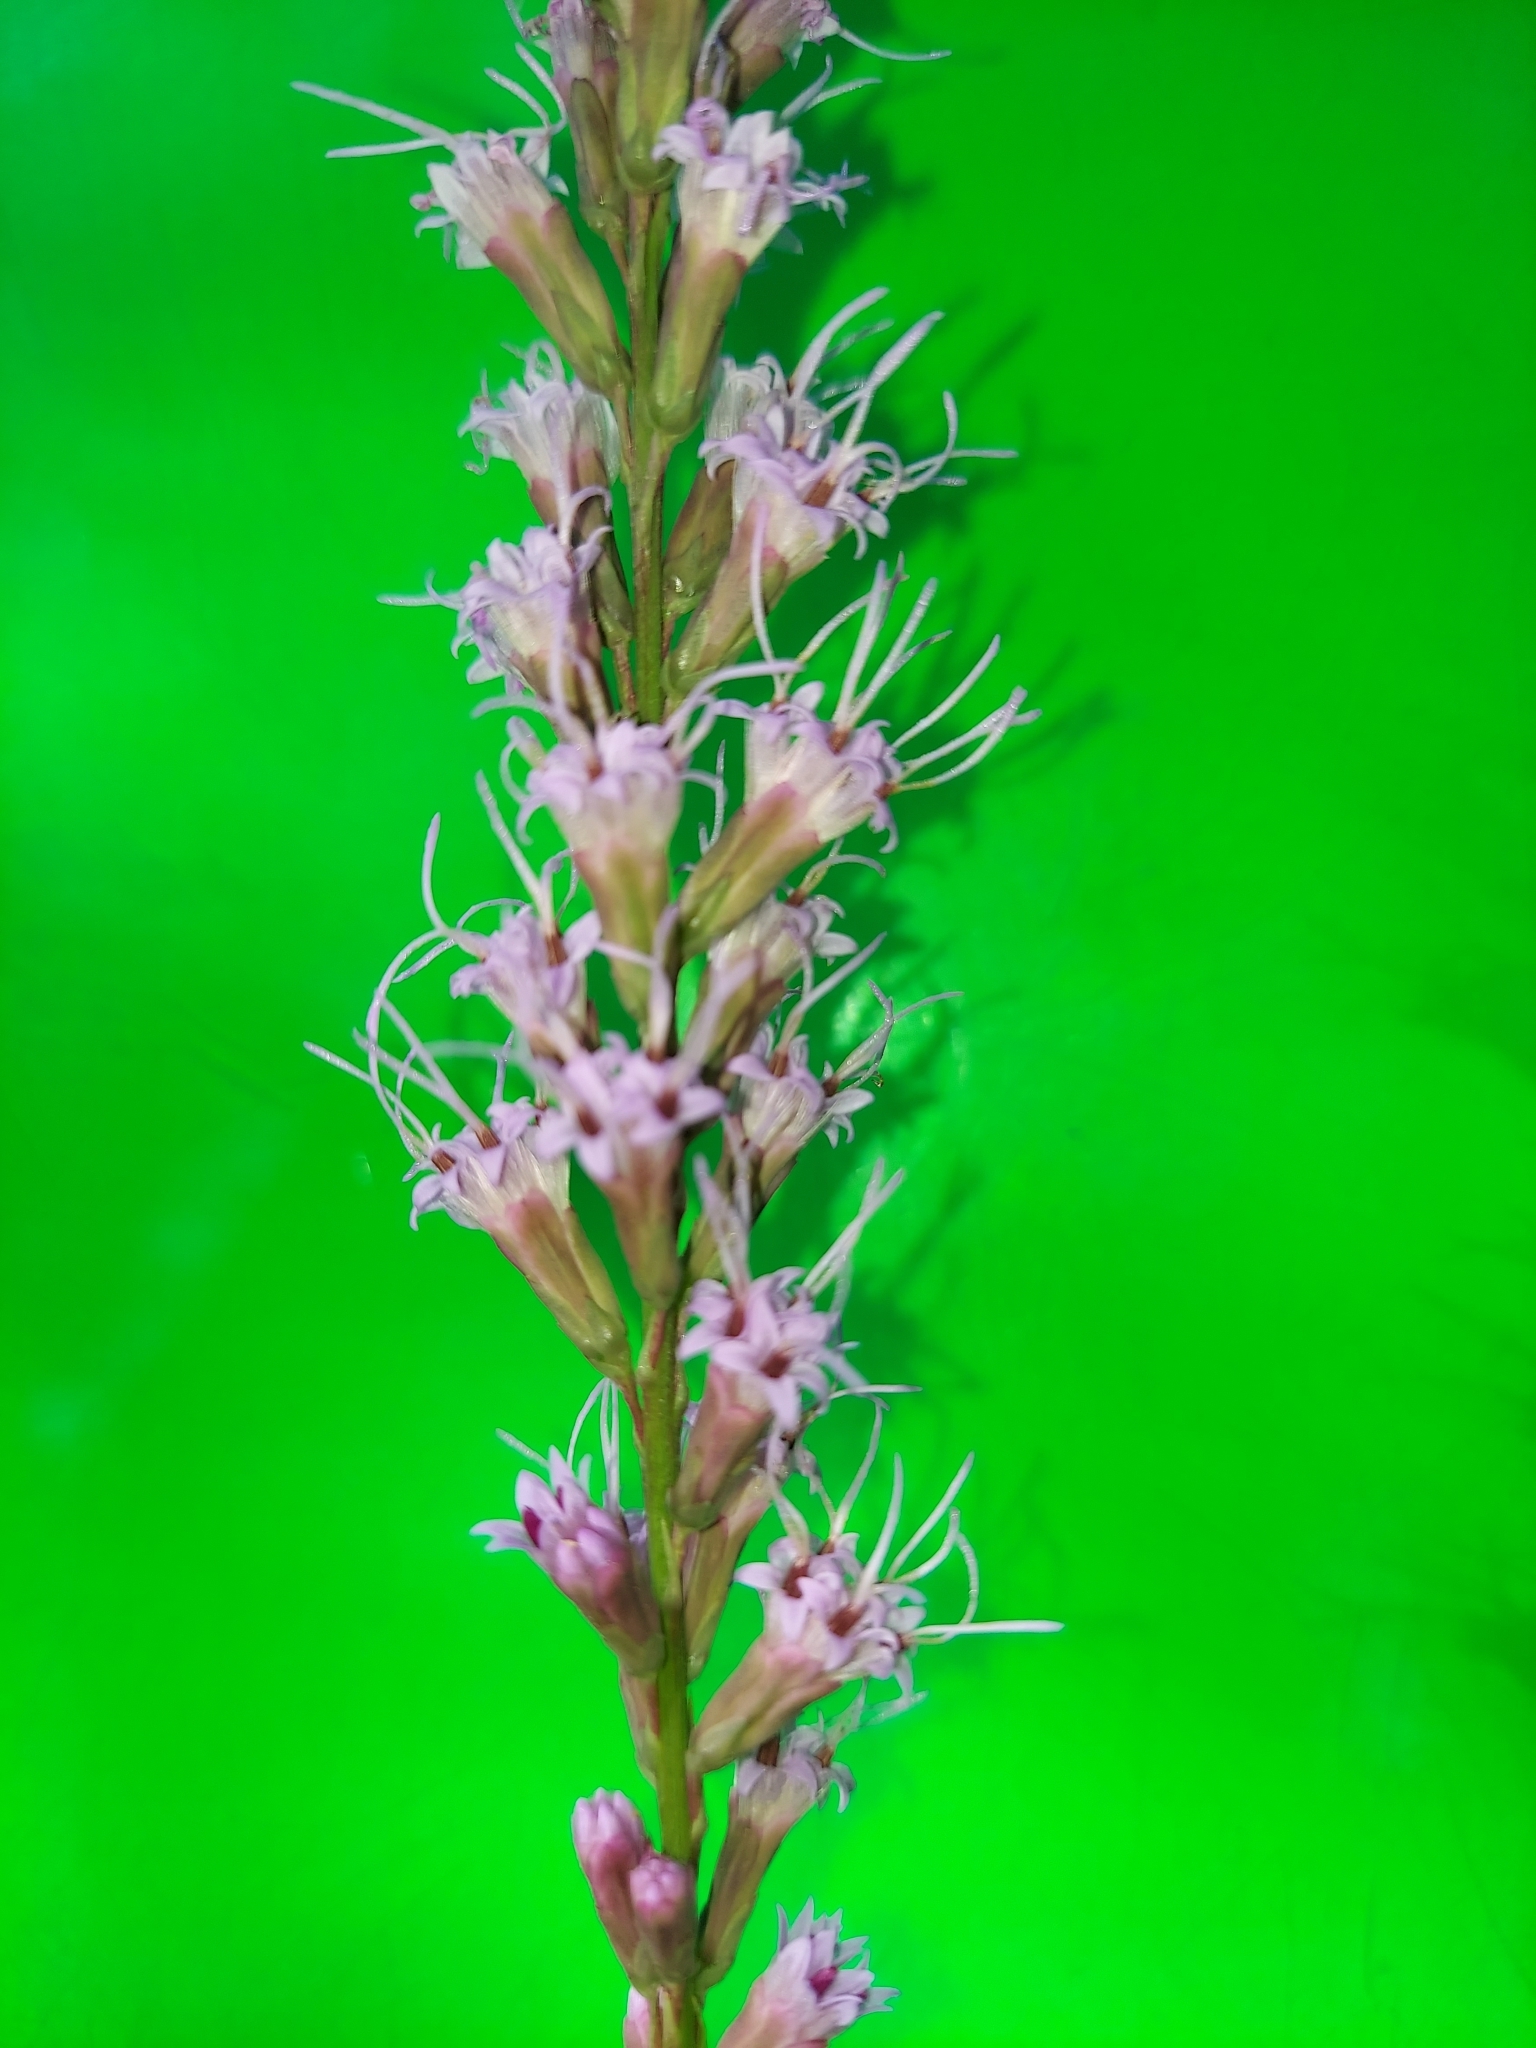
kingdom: Plantae
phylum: Tracheophyta
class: Magnoliopsida
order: Asterales
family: Asteraceae
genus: Liatris
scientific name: Liatris quadriflora
